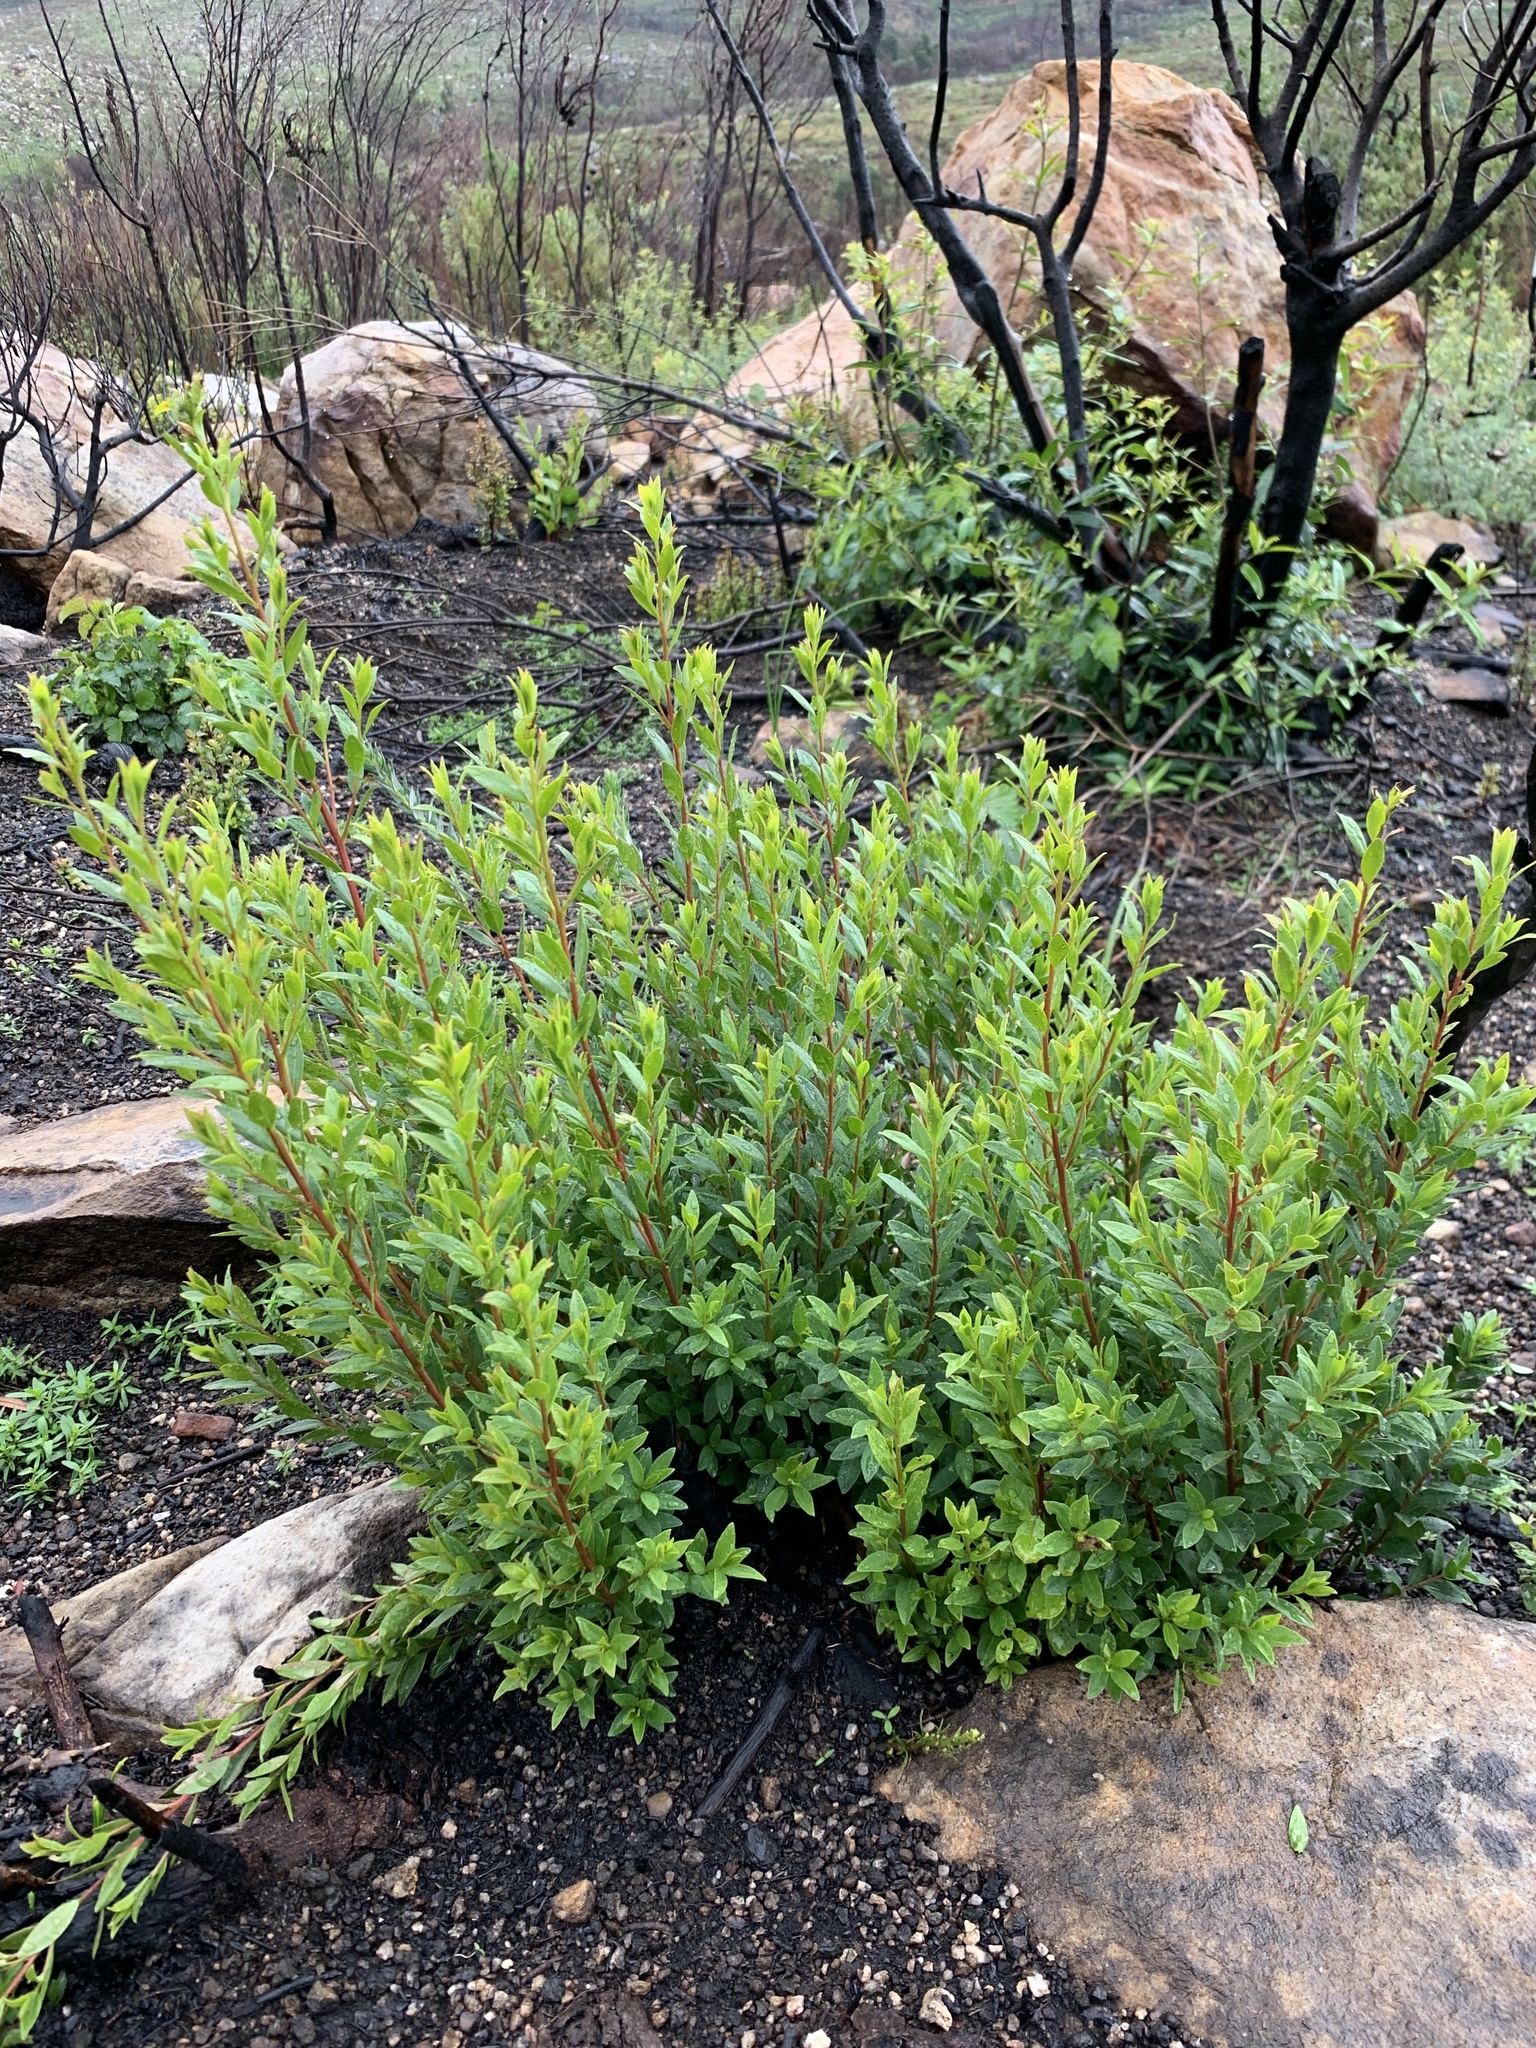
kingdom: Plantae
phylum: Tracheophyta
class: Magnoliopsida
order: Ericales
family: Ebenaceae
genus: Diospyros
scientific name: Diospyros glabra
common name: Fynbos star apple
